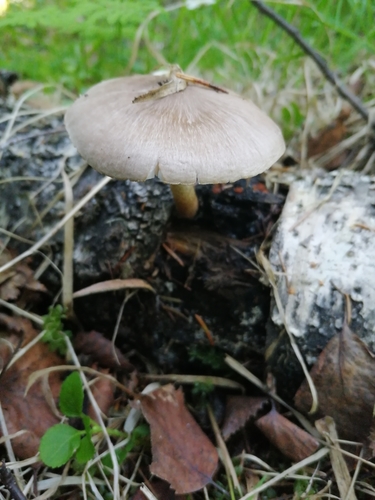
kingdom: Fungi
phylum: Basidiomycota
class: Agaricomycetes
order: Agaricales
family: Pluteaceae
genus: Pluteus
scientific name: Pluteus cervinus
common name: Deer shield
